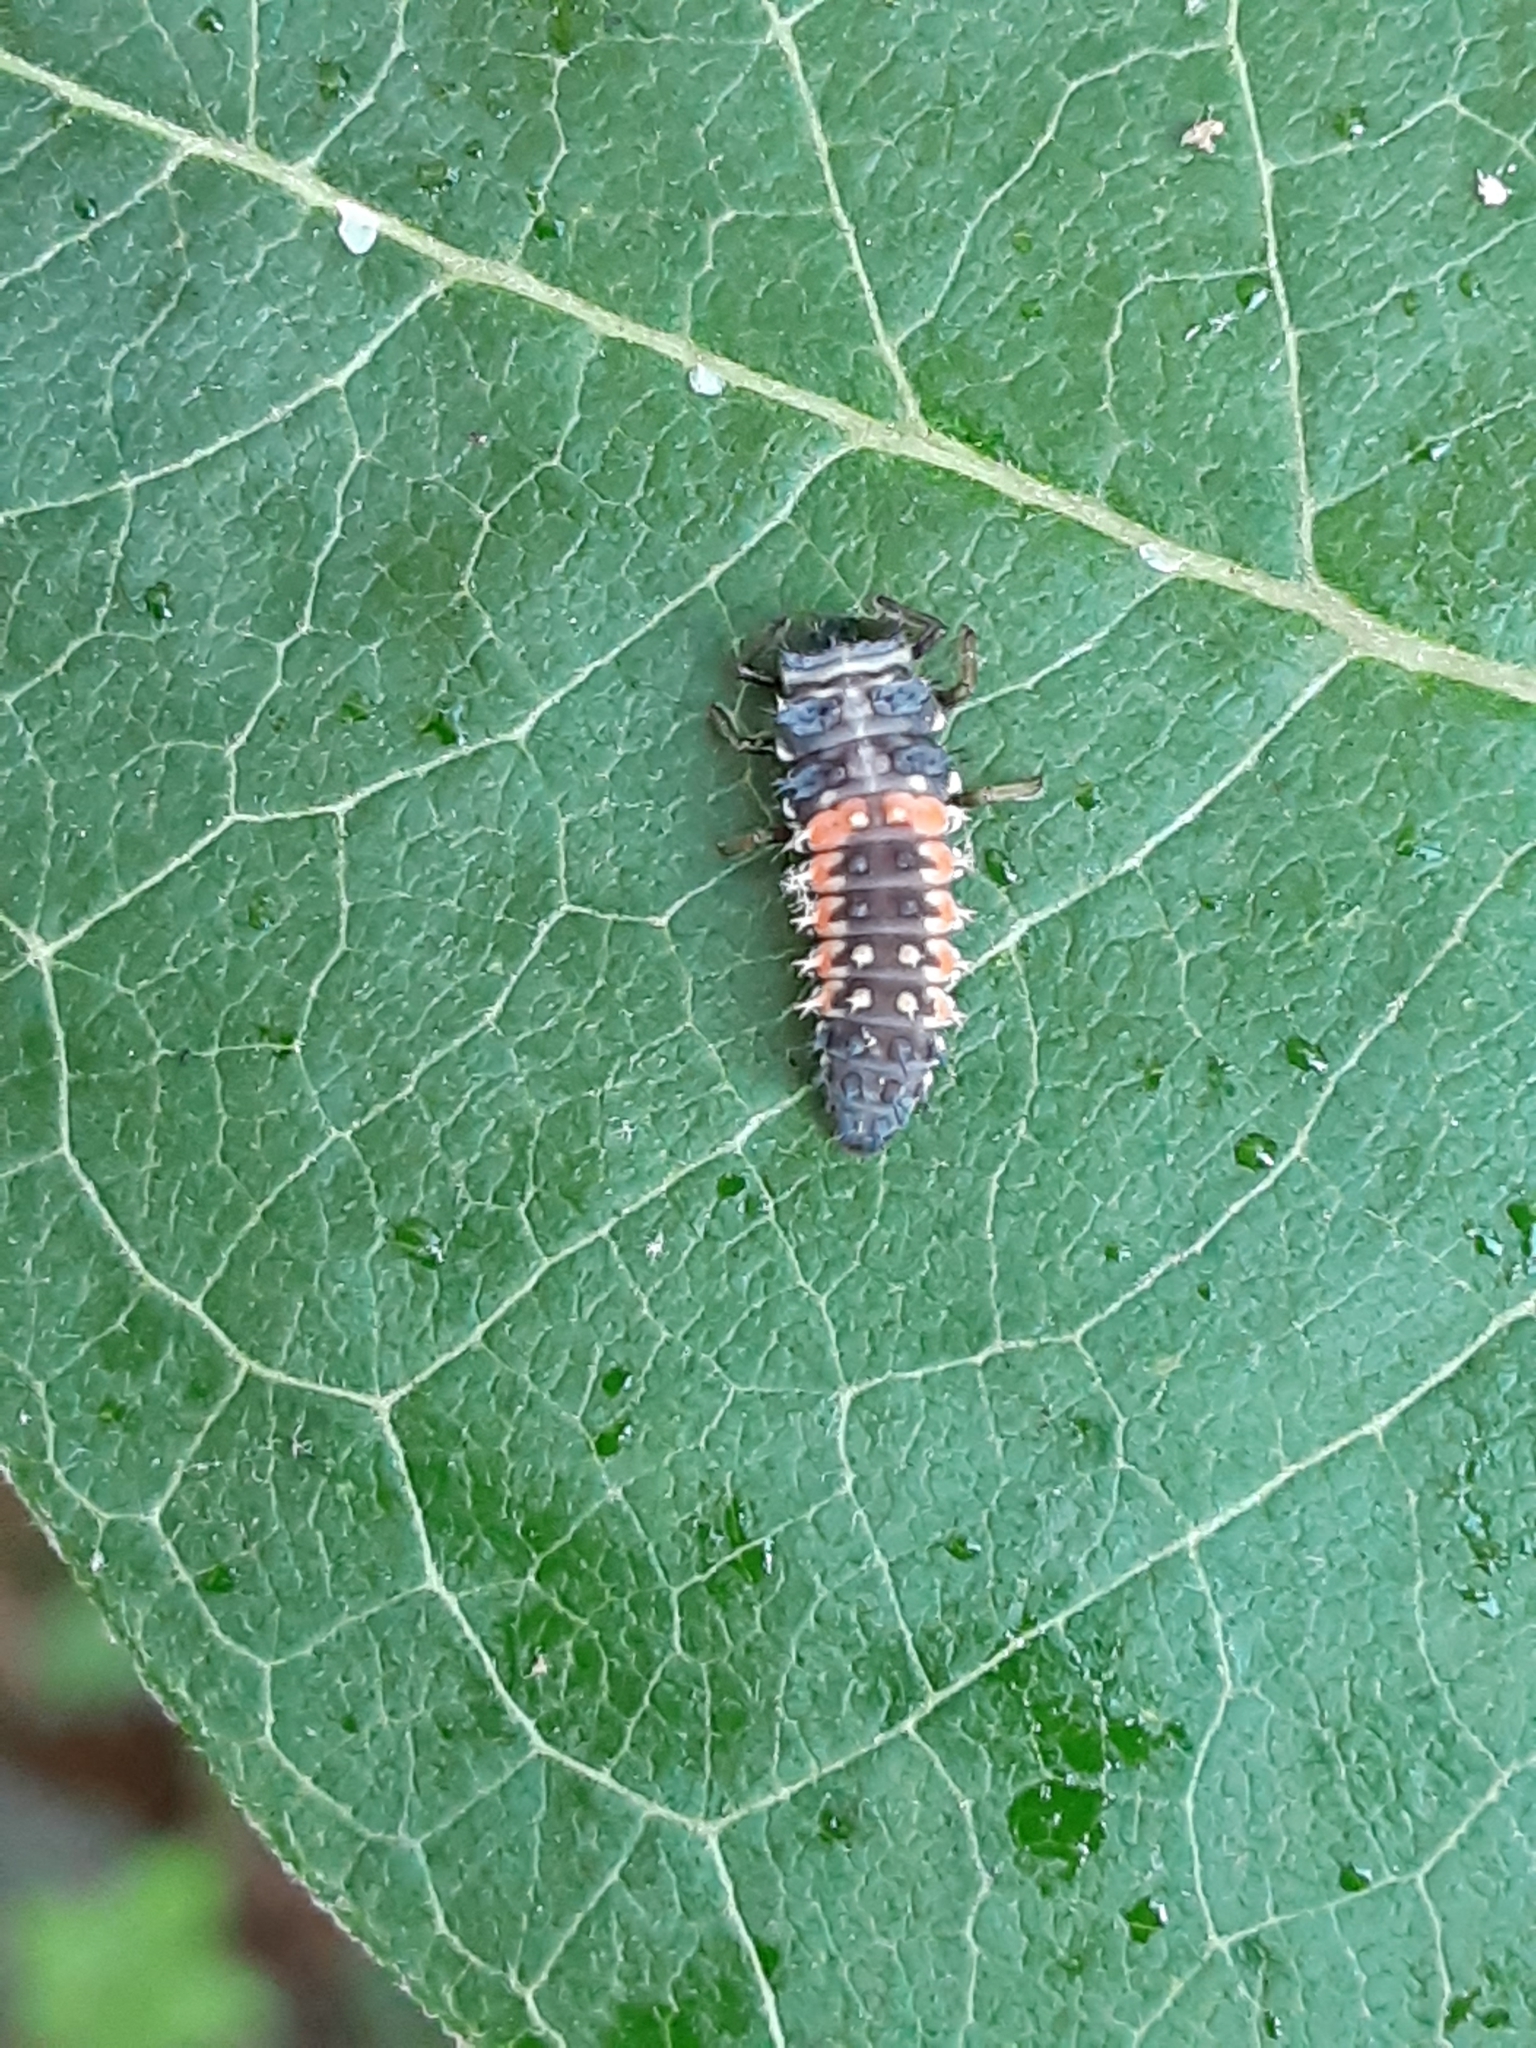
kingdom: Animalia
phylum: Arthropoda
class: Insecta
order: Coleoptera
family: Coccinellidae
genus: Harmonia
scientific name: Harmonia axyridis
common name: Harlequin ladybird
